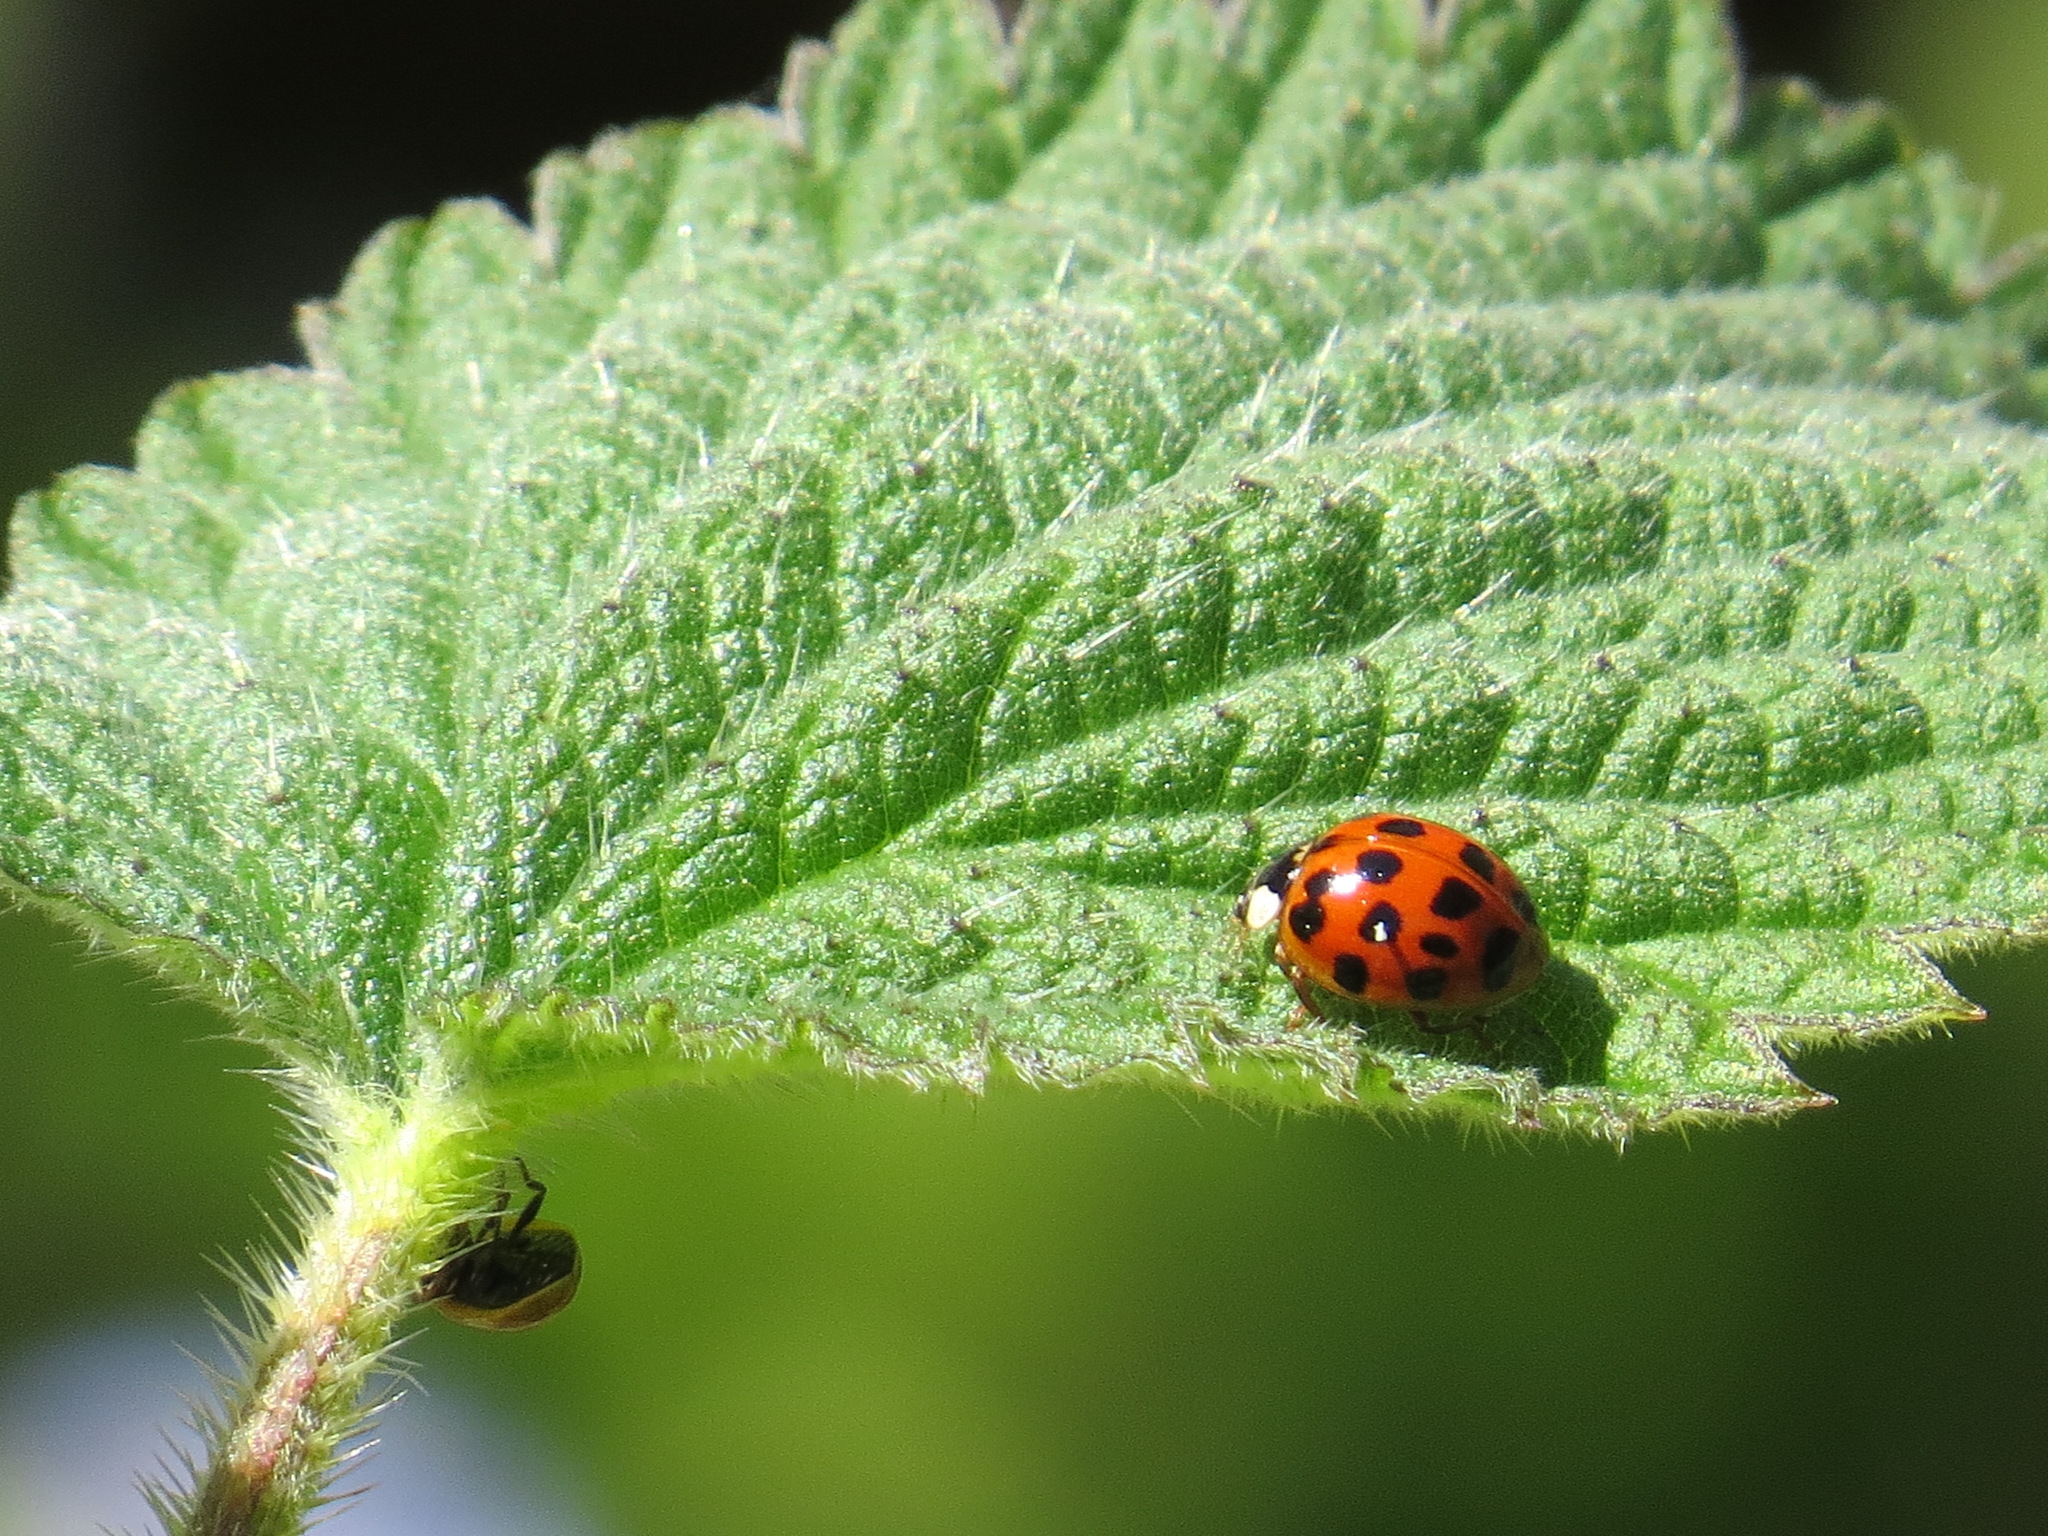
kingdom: Animalia
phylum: Arthropoda
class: Insecta
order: Coleoptera
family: Coccinellidae
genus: Harmonia
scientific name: Harmonia axyridis
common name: Harlequin ladybird
